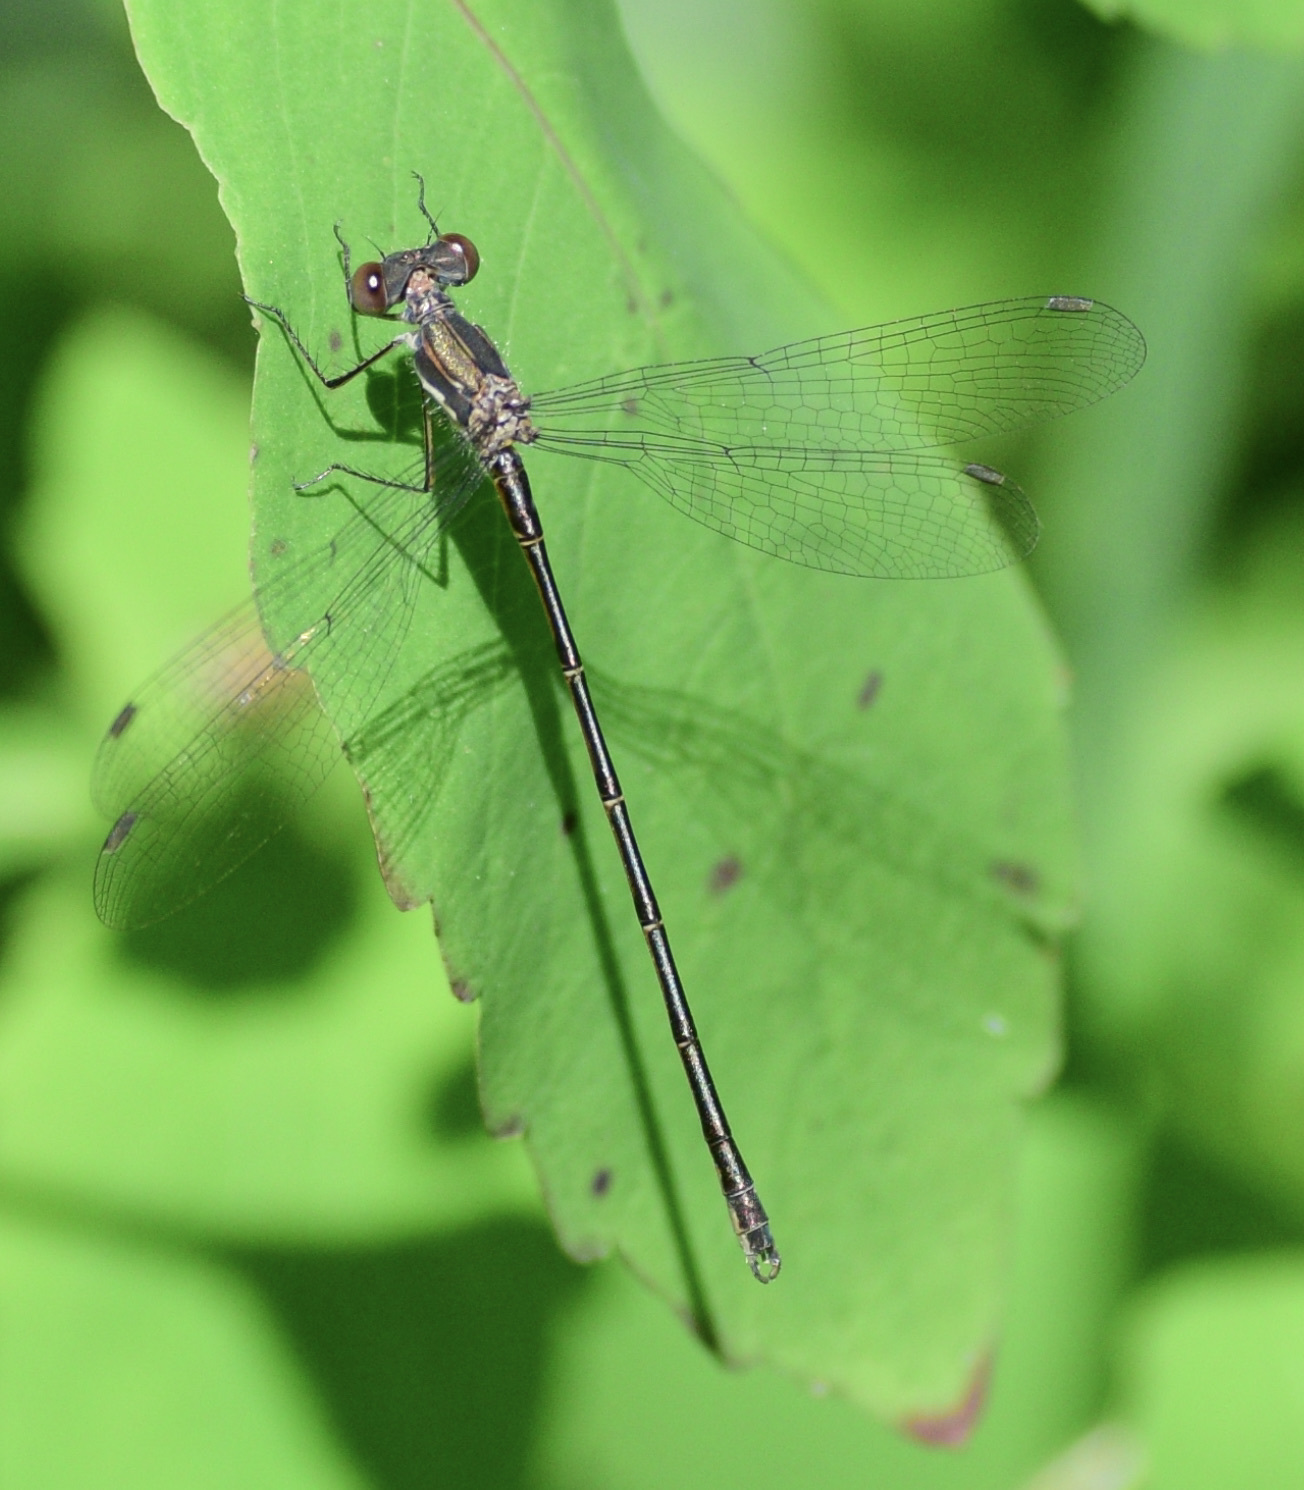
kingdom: Animalia
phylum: Arthropoda
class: Insecta
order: Odonata
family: Lestidae
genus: Lestes
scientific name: Lestes congener
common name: Spotted spreadwing
